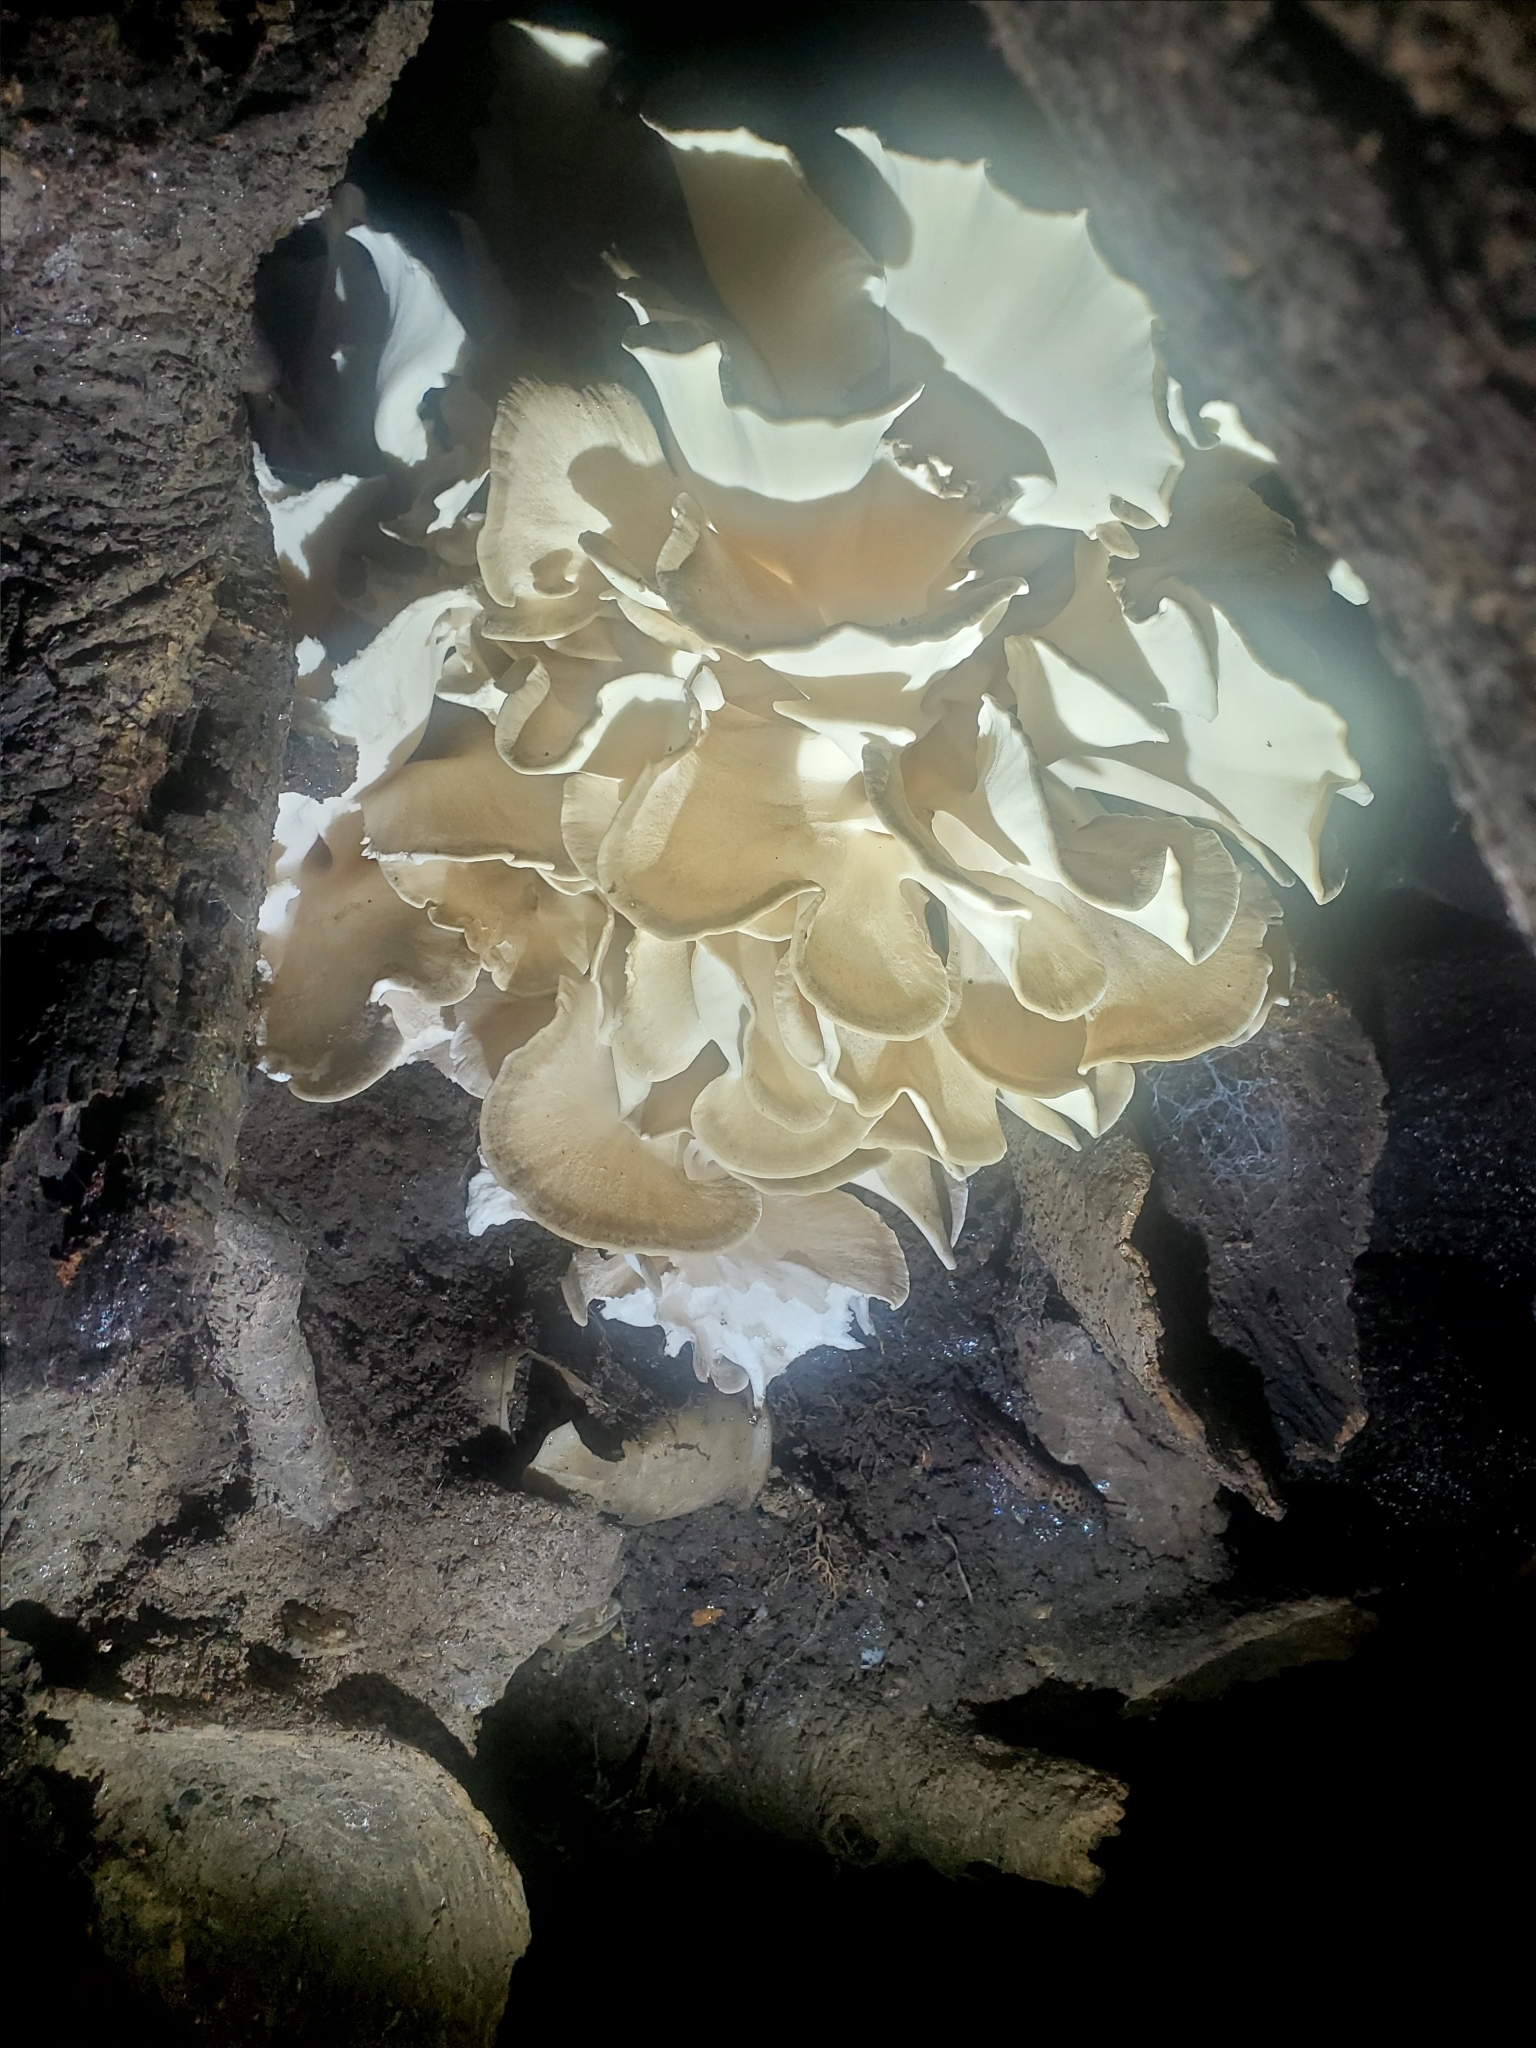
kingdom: Fungi
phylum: Basidiomycota
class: Agaricomycetes
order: Polyporales
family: Grifolaceae
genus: Grifola
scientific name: Grifola frondosa
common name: Hen of the woods
